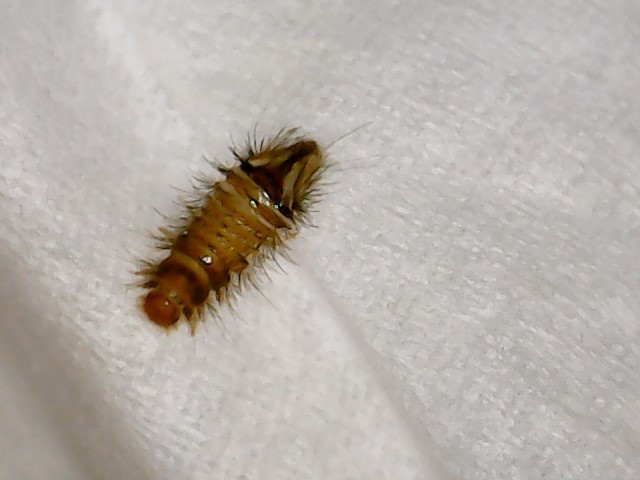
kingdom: Animalia
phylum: Arthropoda
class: Insecta
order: Coleoptera
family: Dermestidae
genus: Anthrenus
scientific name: Anthrenus verbasci
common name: Varied carpet beetle
